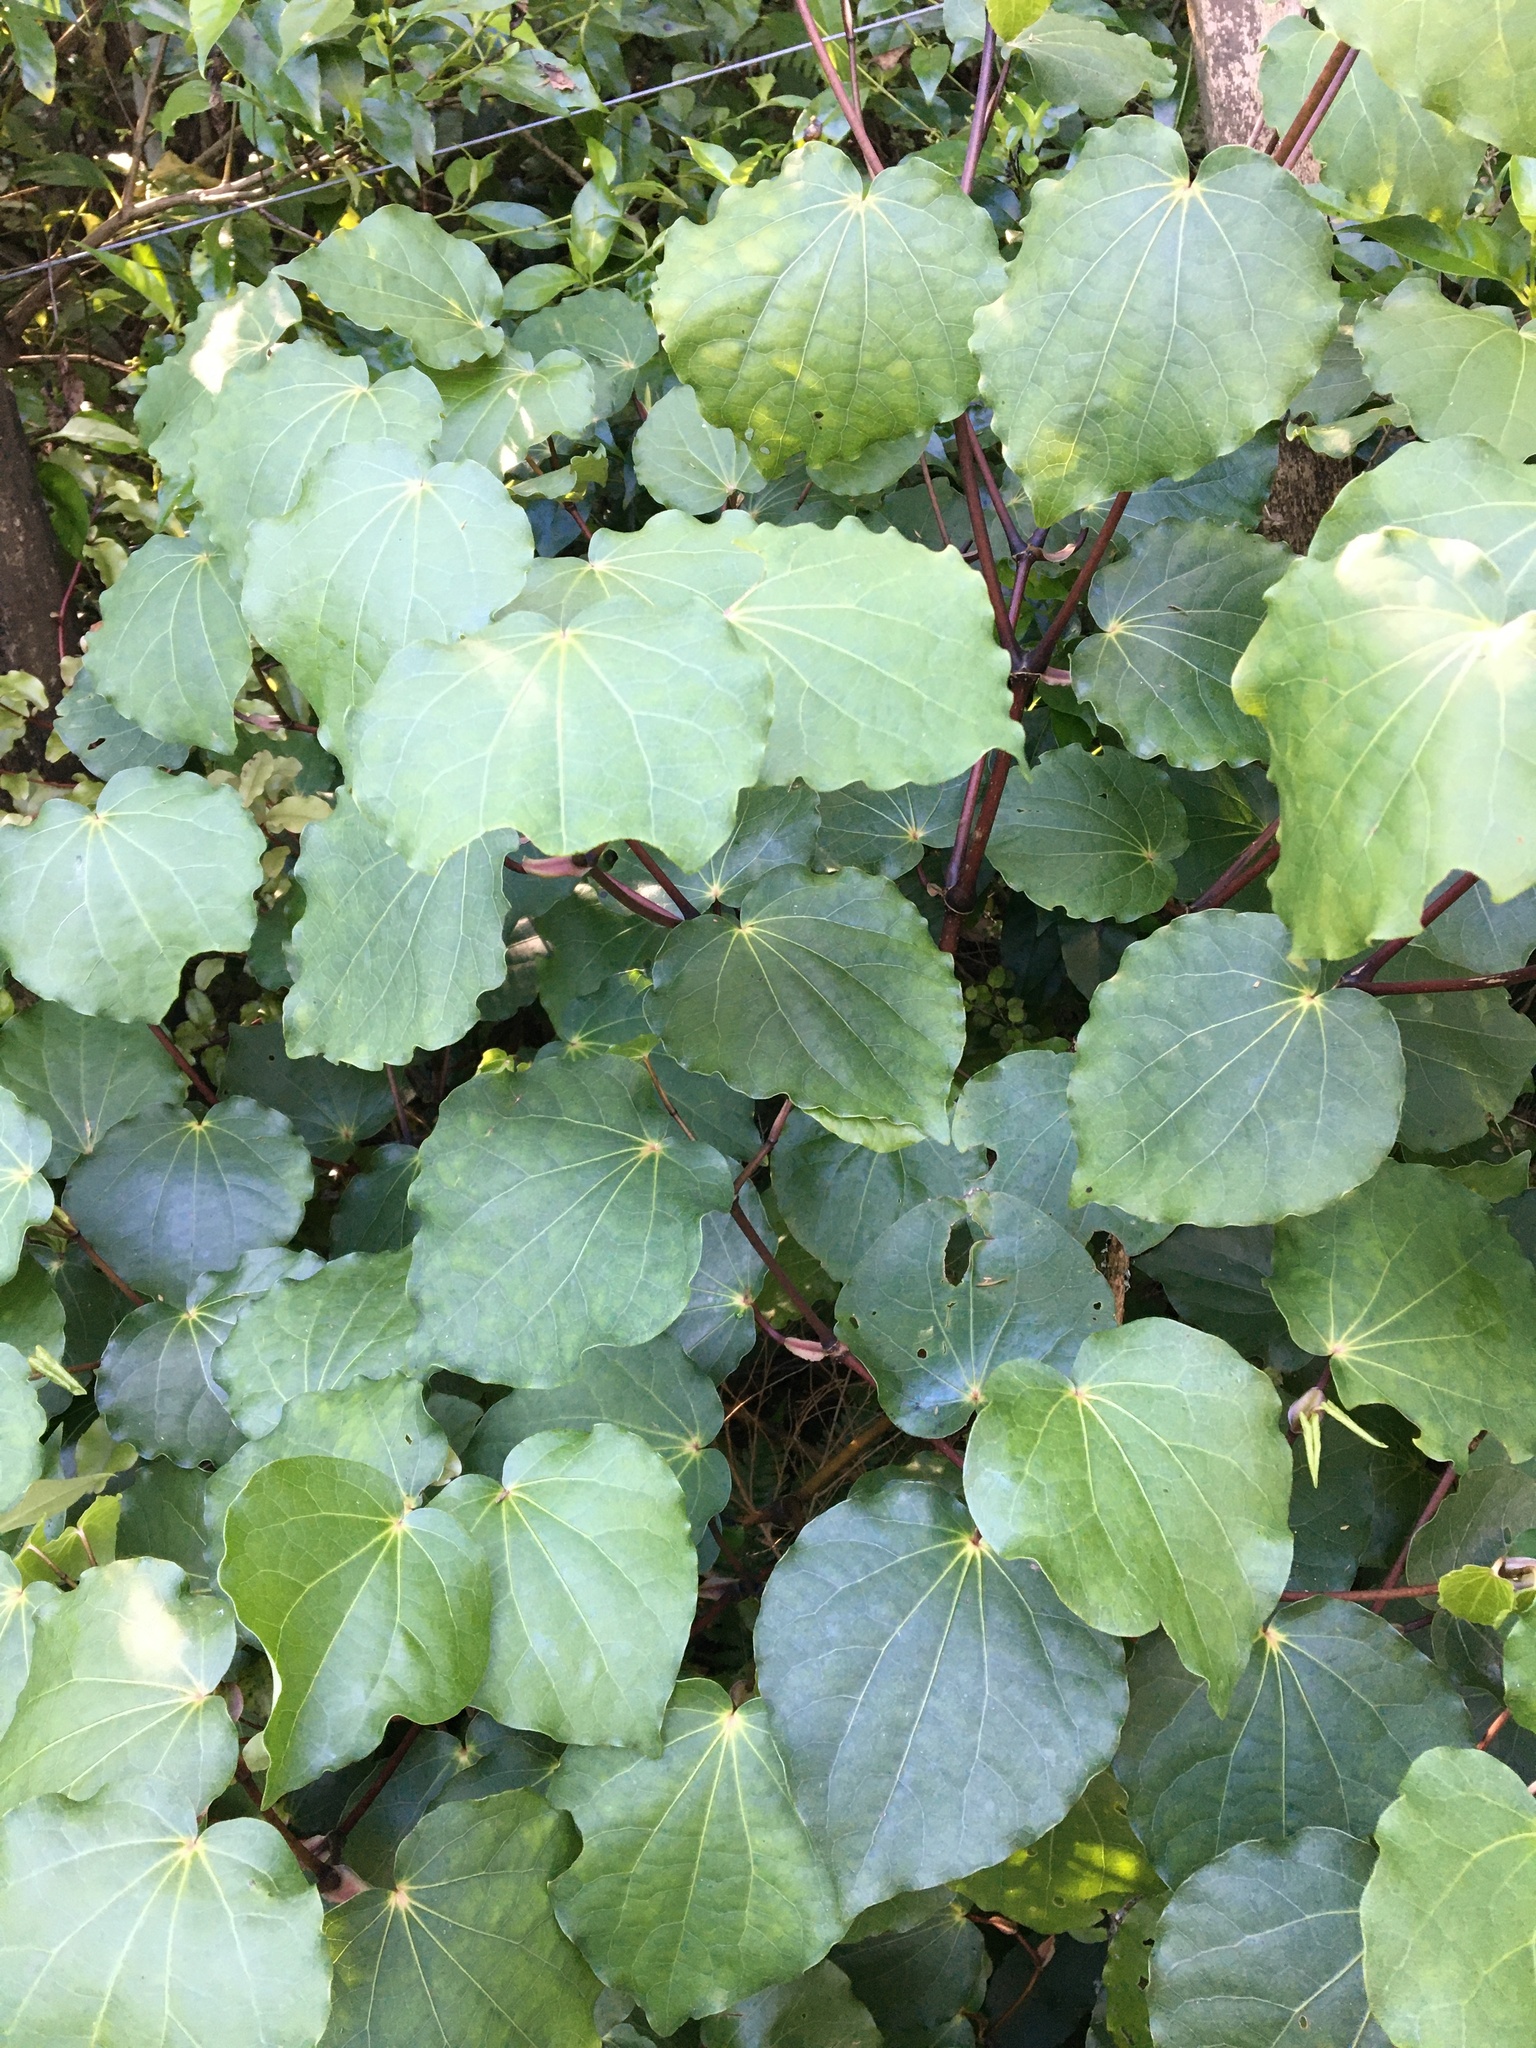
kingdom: Plantae
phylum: Tracheophyta
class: Magnoliopsida
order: Piperales
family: Piperaceae
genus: Macropiper
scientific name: Macropiper excelsum
